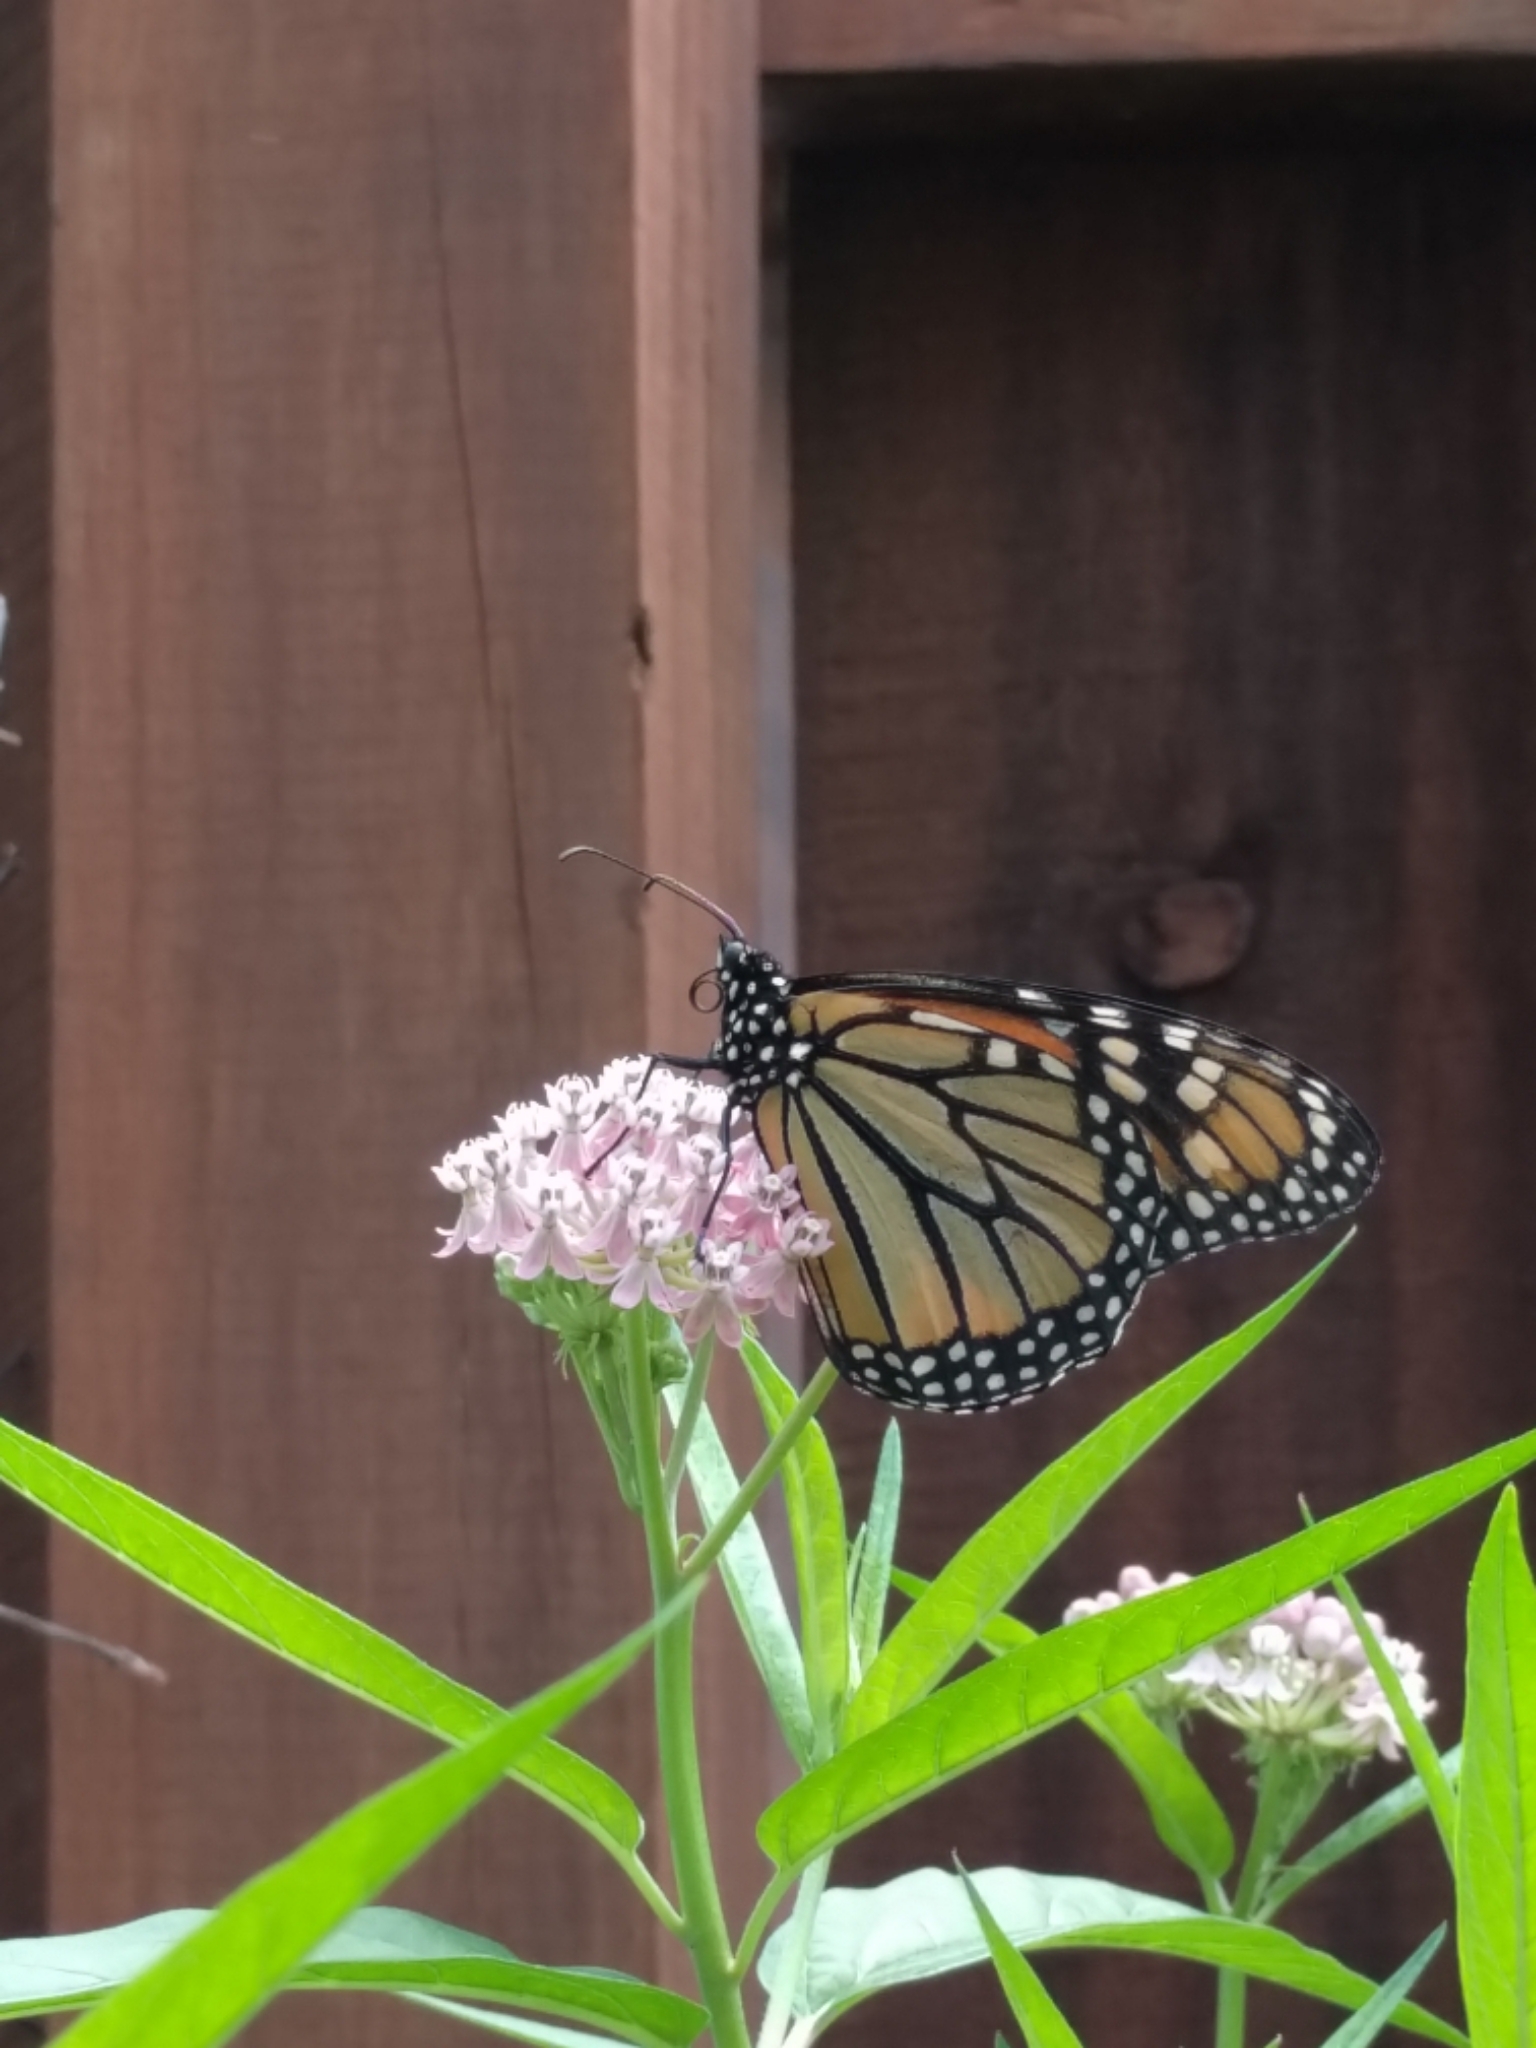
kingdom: Animalia
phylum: Arthropoda
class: Insecta
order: Lepidoptera
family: Nymphalidae
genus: Danaus
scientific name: Danaus plexippus
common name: Monarch
